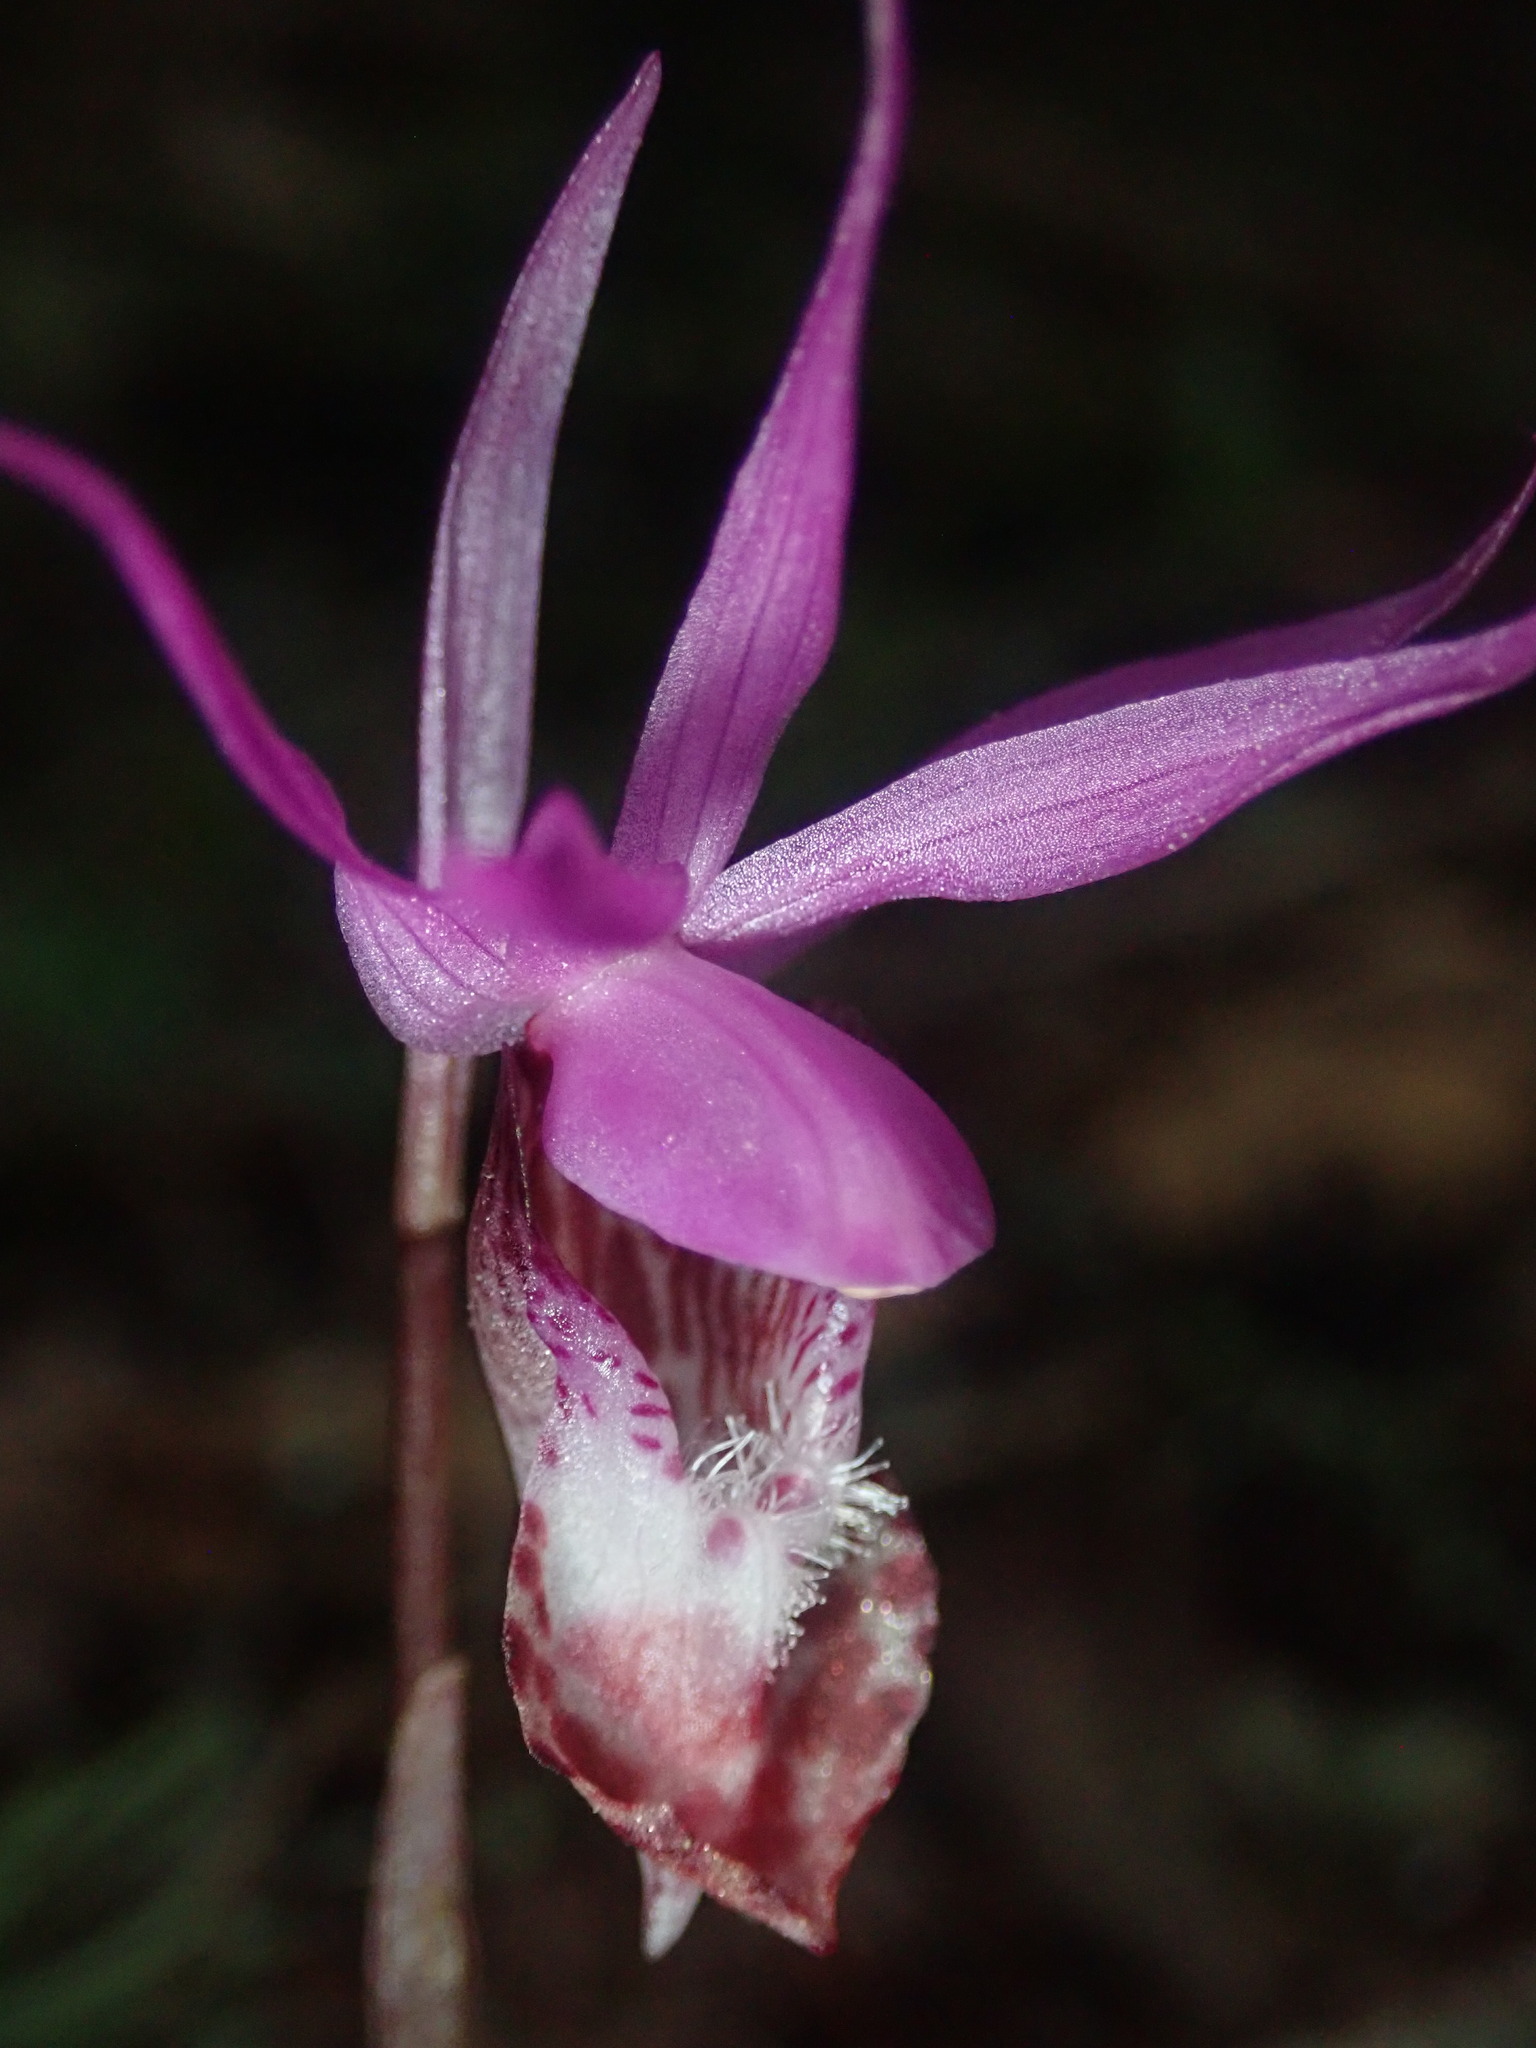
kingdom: Plantae
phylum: Tracheophyta
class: Liliopsida
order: Asparagales
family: Orchidaceae
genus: Calypso
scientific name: Calypso bulbosa
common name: Calypso
